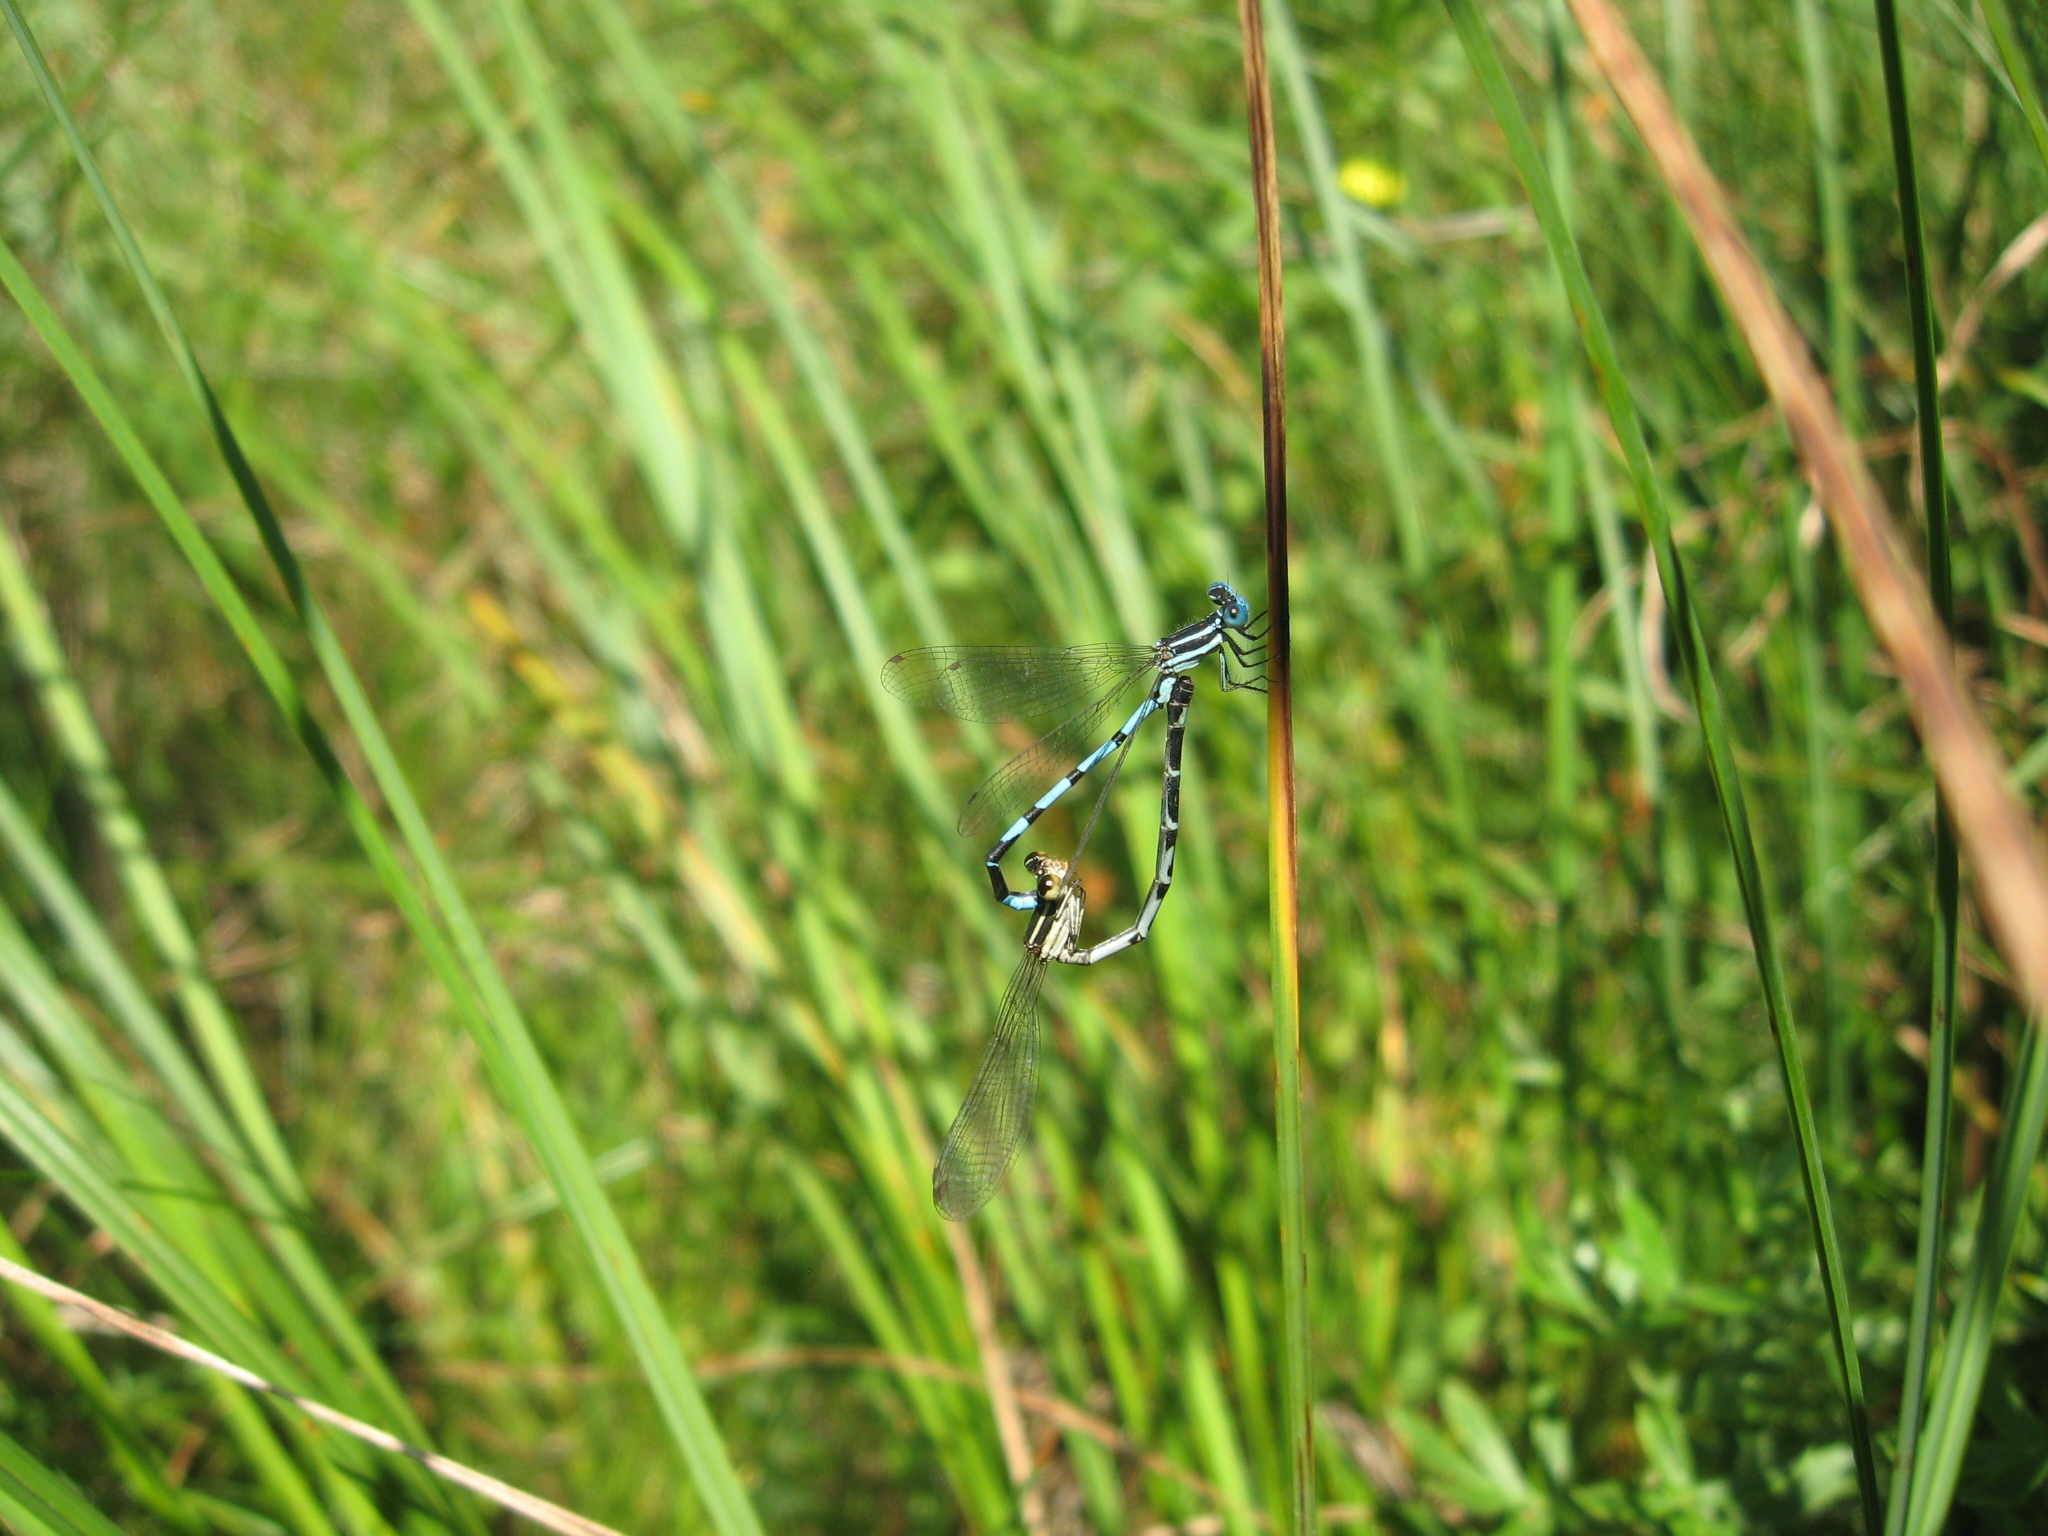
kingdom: Animalia
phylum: Arthropoda
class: Insecta
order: Odonata
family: Coenagrionidae
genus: Argia
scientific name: Argia bipunctulata
